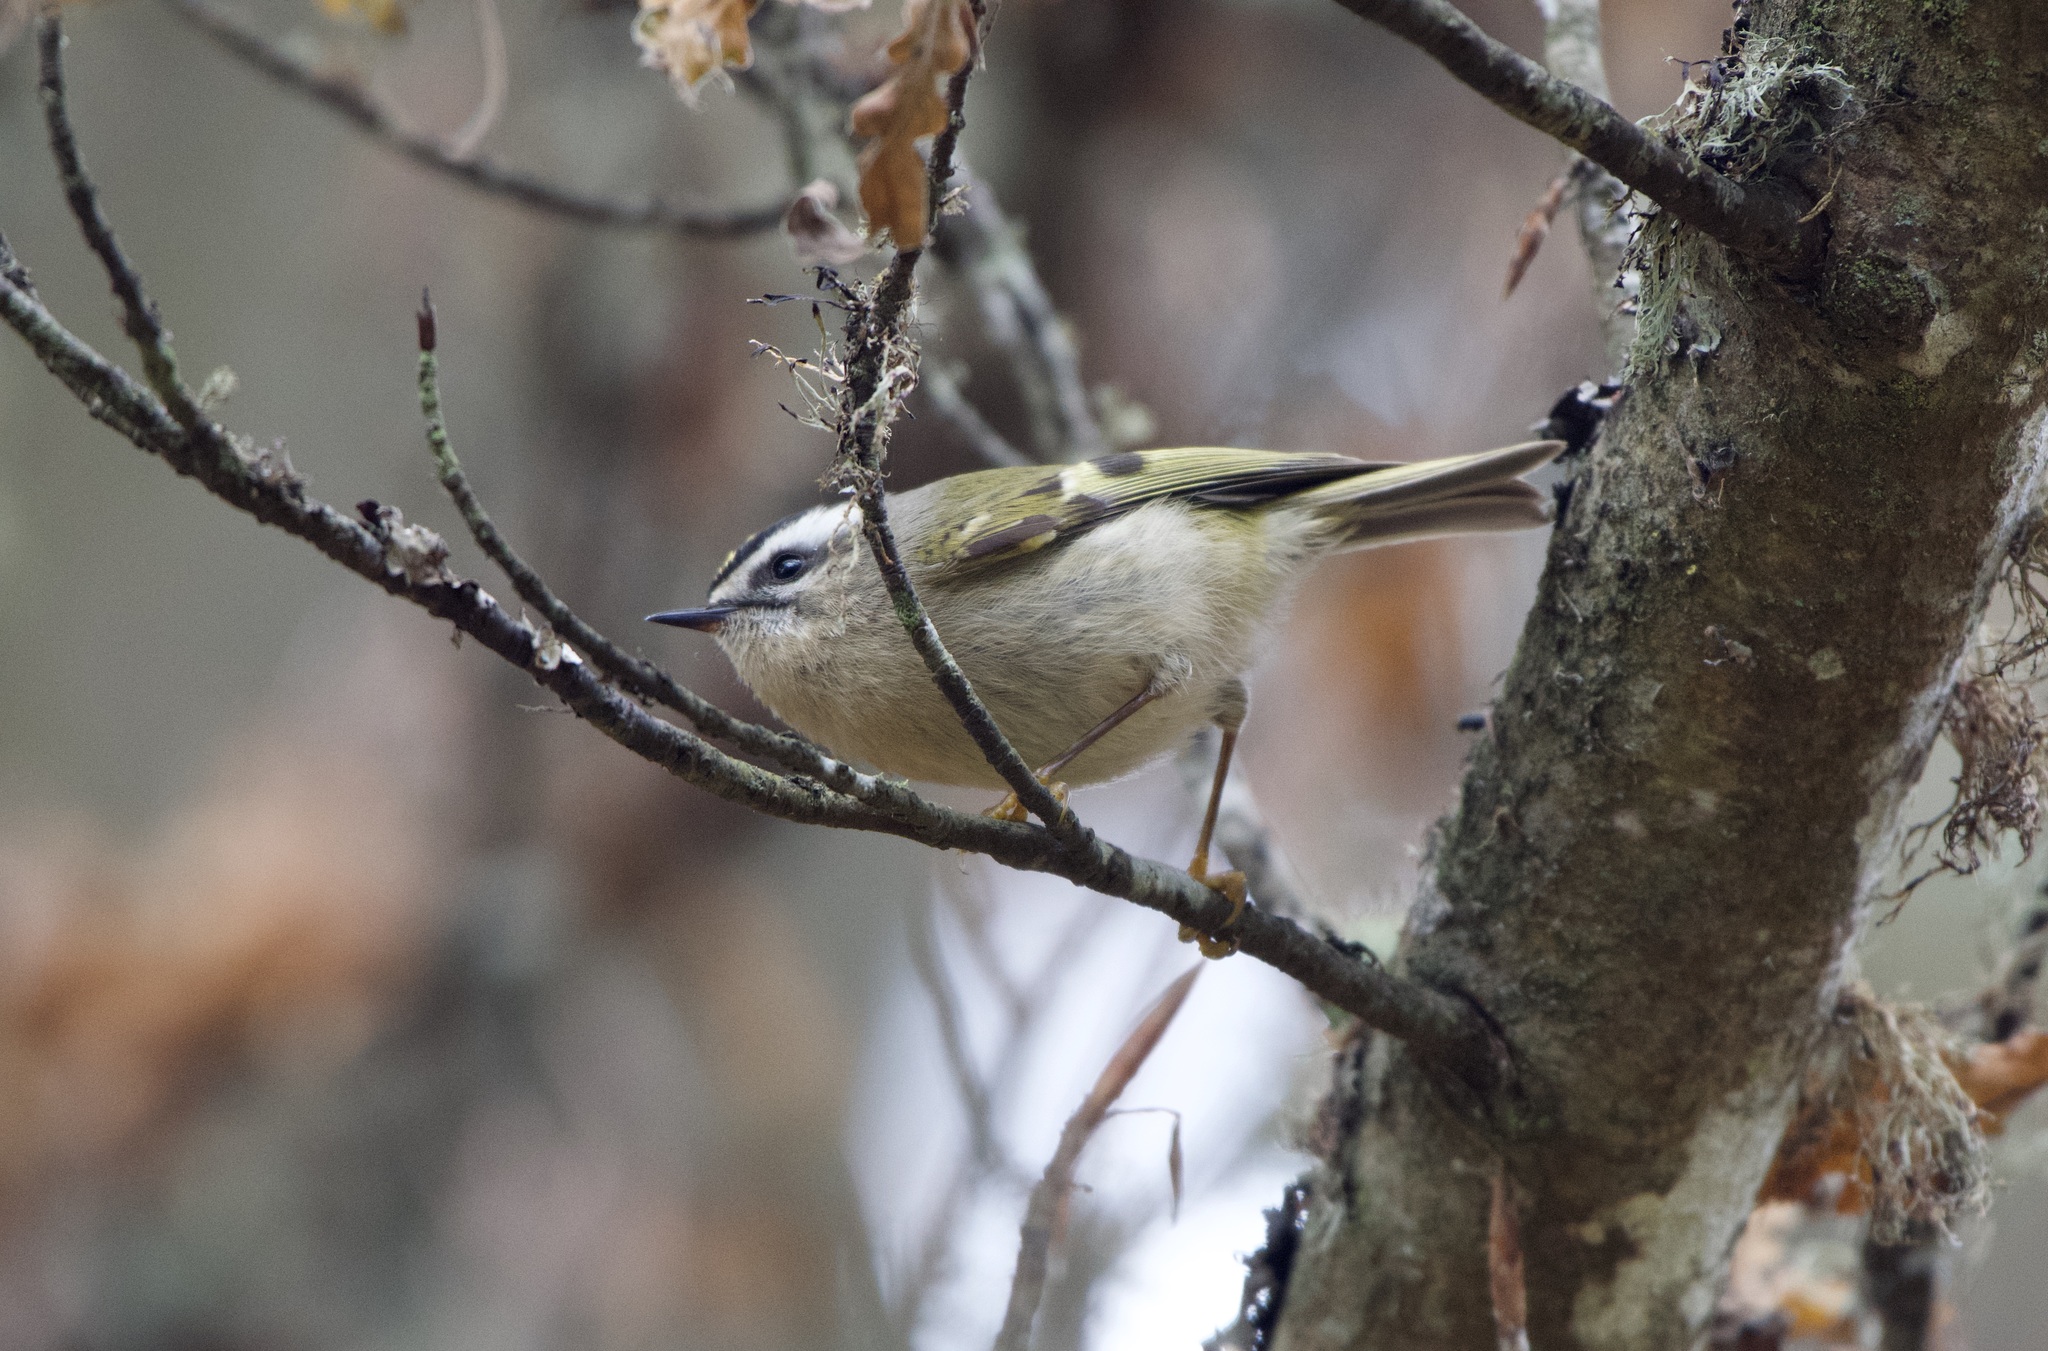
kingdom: Animalia
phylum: Chordata
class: Aves
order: Passeriformes
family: Regulidae
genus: Regulus
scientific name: Regulus satrapa
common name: Golden-crowned kinglet
